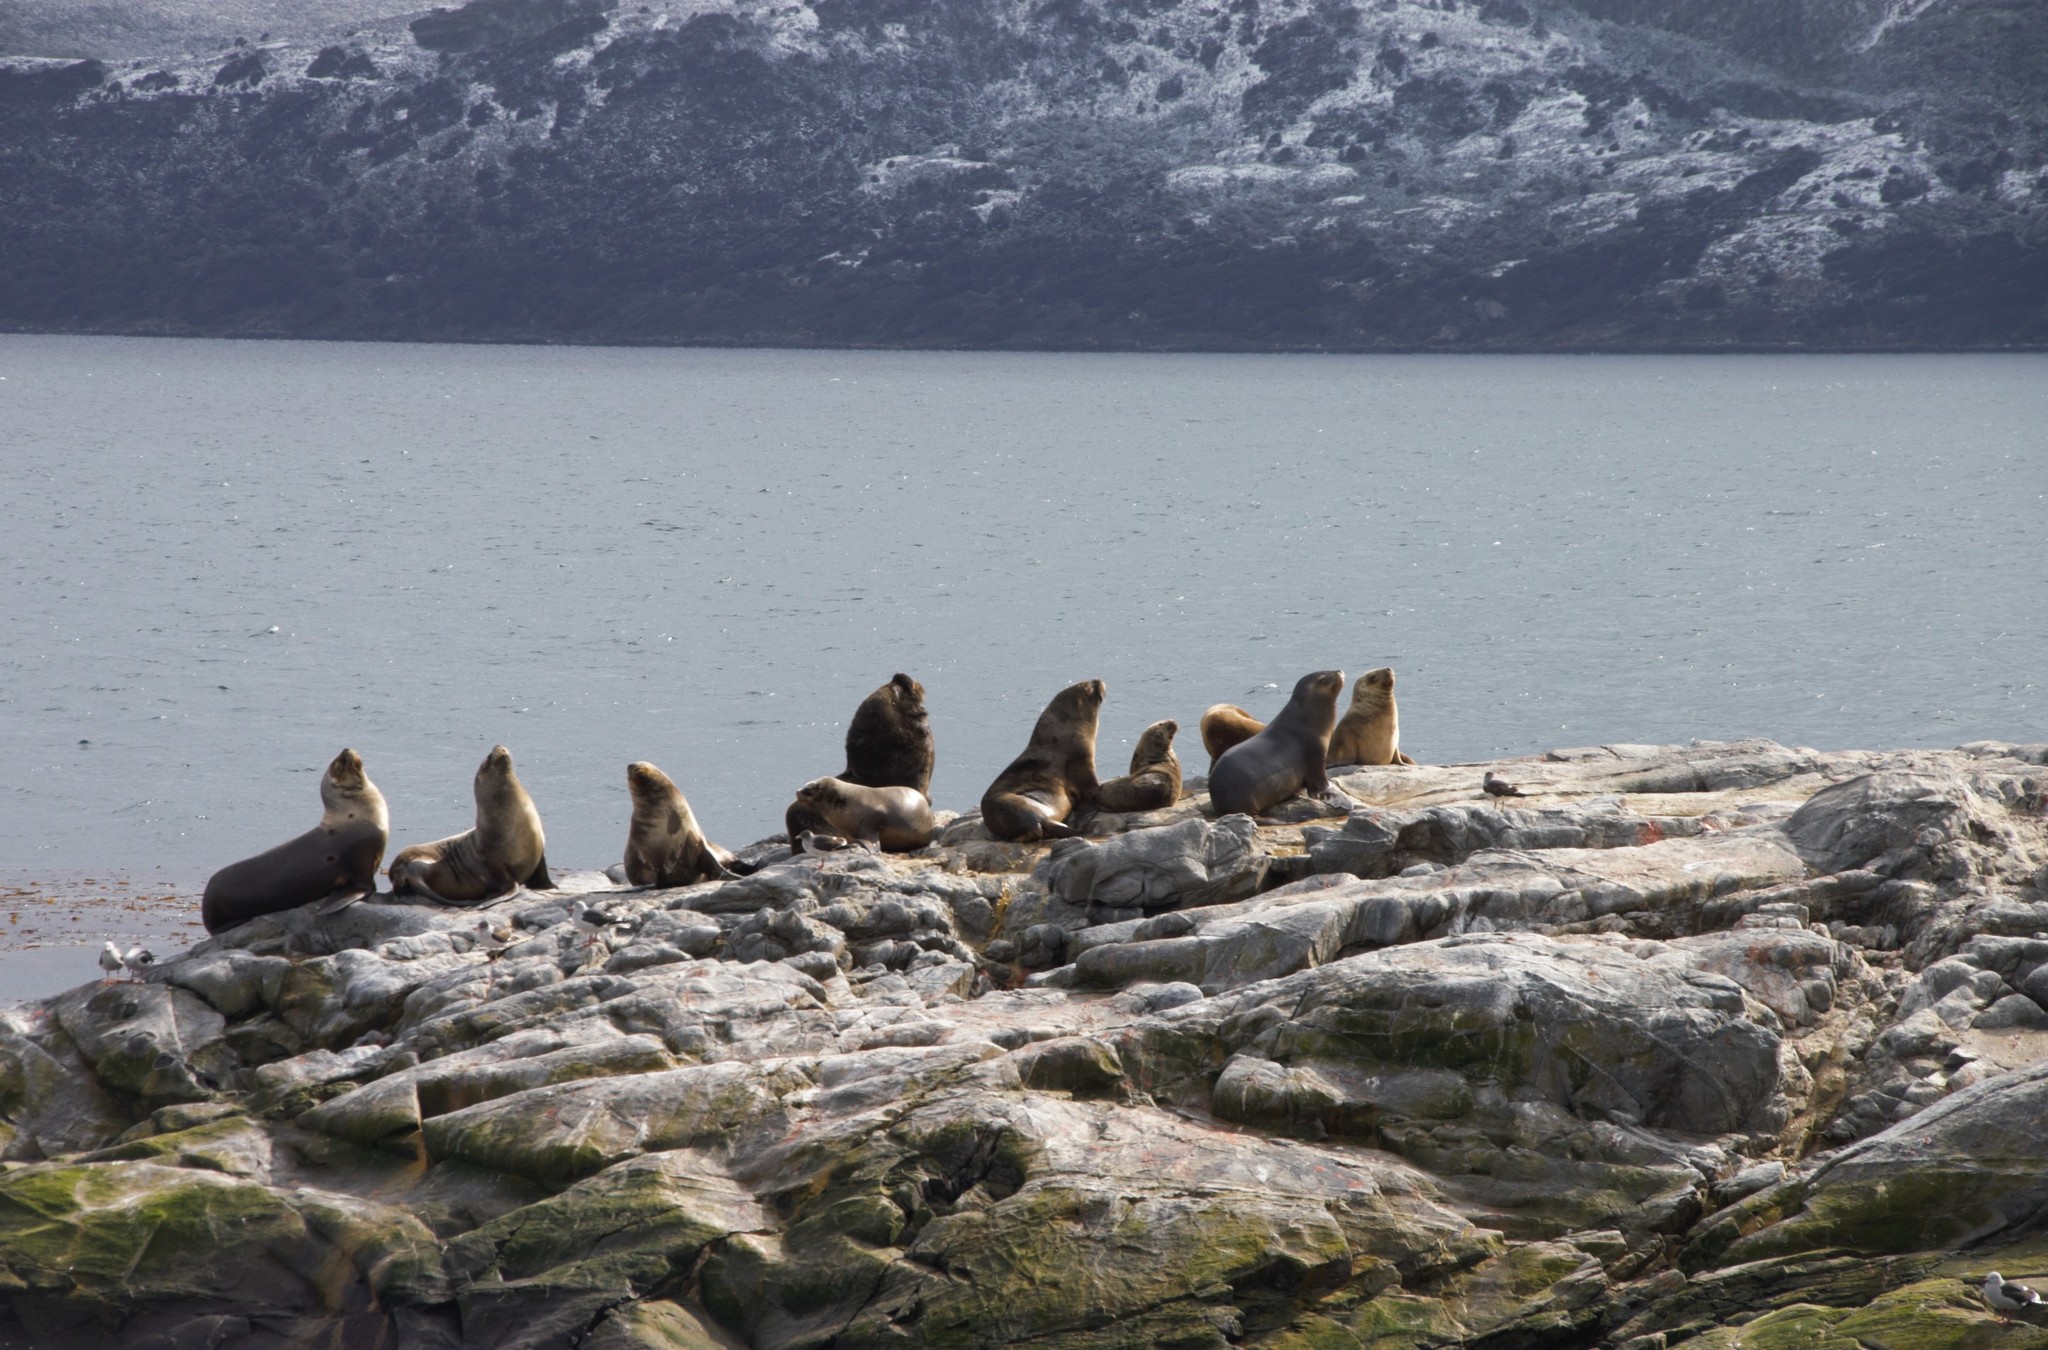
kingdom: Animalia
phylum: Chordata
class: Mammalia
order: Carnivora
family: Otariidae
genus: Otaria
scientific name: Otaria byronia
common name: South american sea lion
